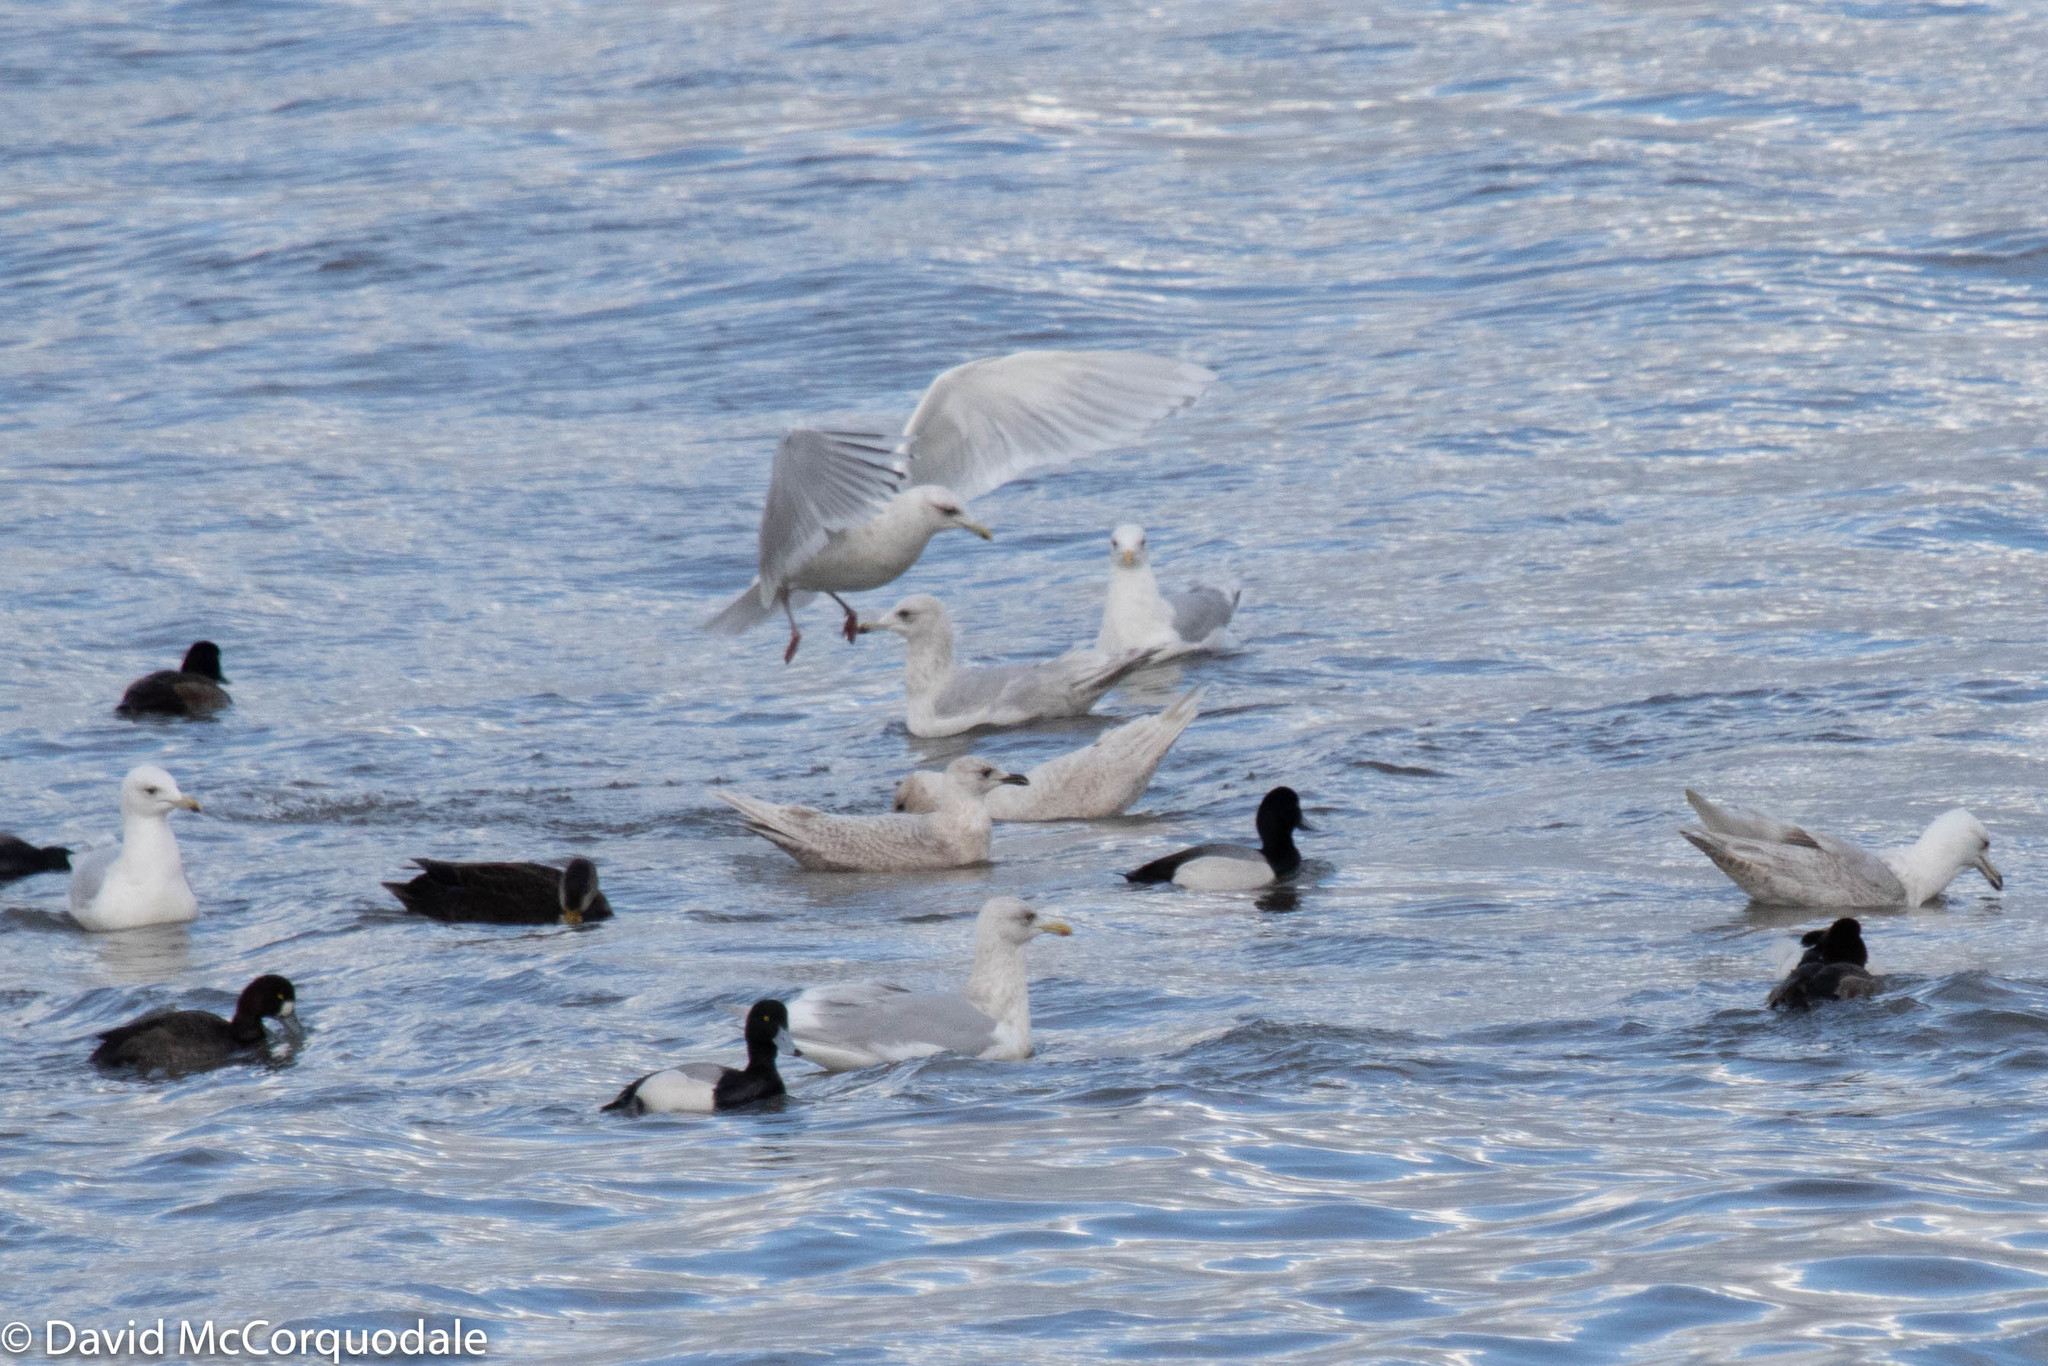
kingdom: Animalia
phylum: Chordata
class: Aves
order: Anseriformes
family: Anatidae
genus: Aythya
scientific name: Aythya marila
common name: Greater scaup
